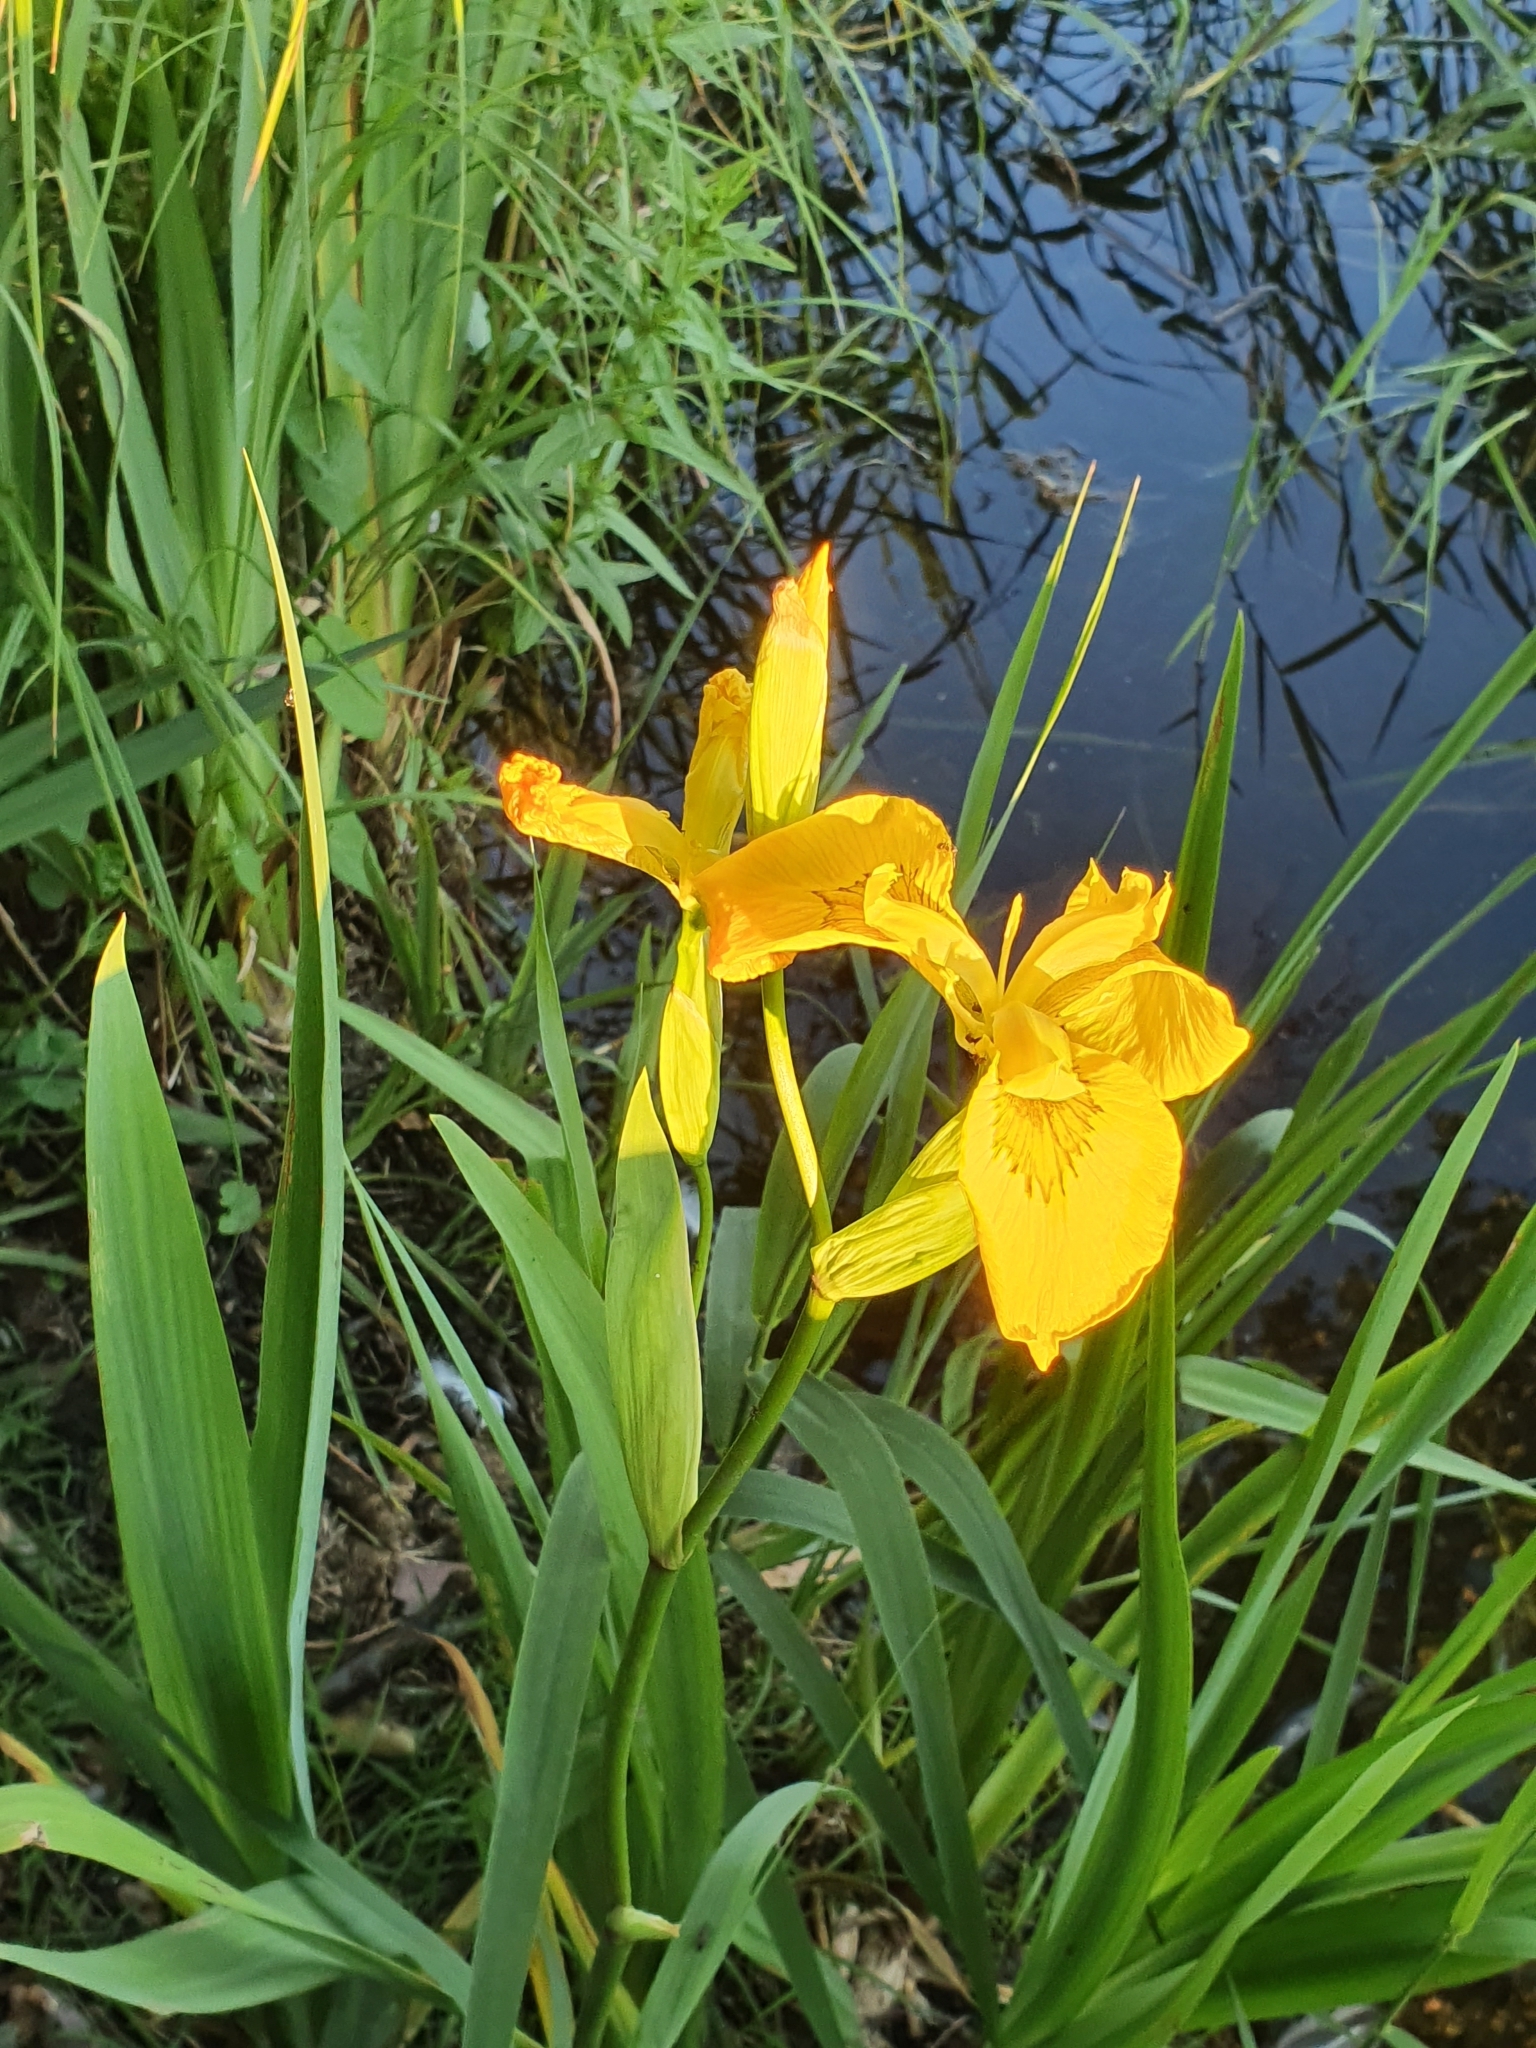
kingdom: Plantae
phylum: Tracheophyta
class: Liliopsida
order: Asparagales
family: Iridaceae
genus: Iris
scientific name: Iris pseudacorus
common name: Yellow flag
